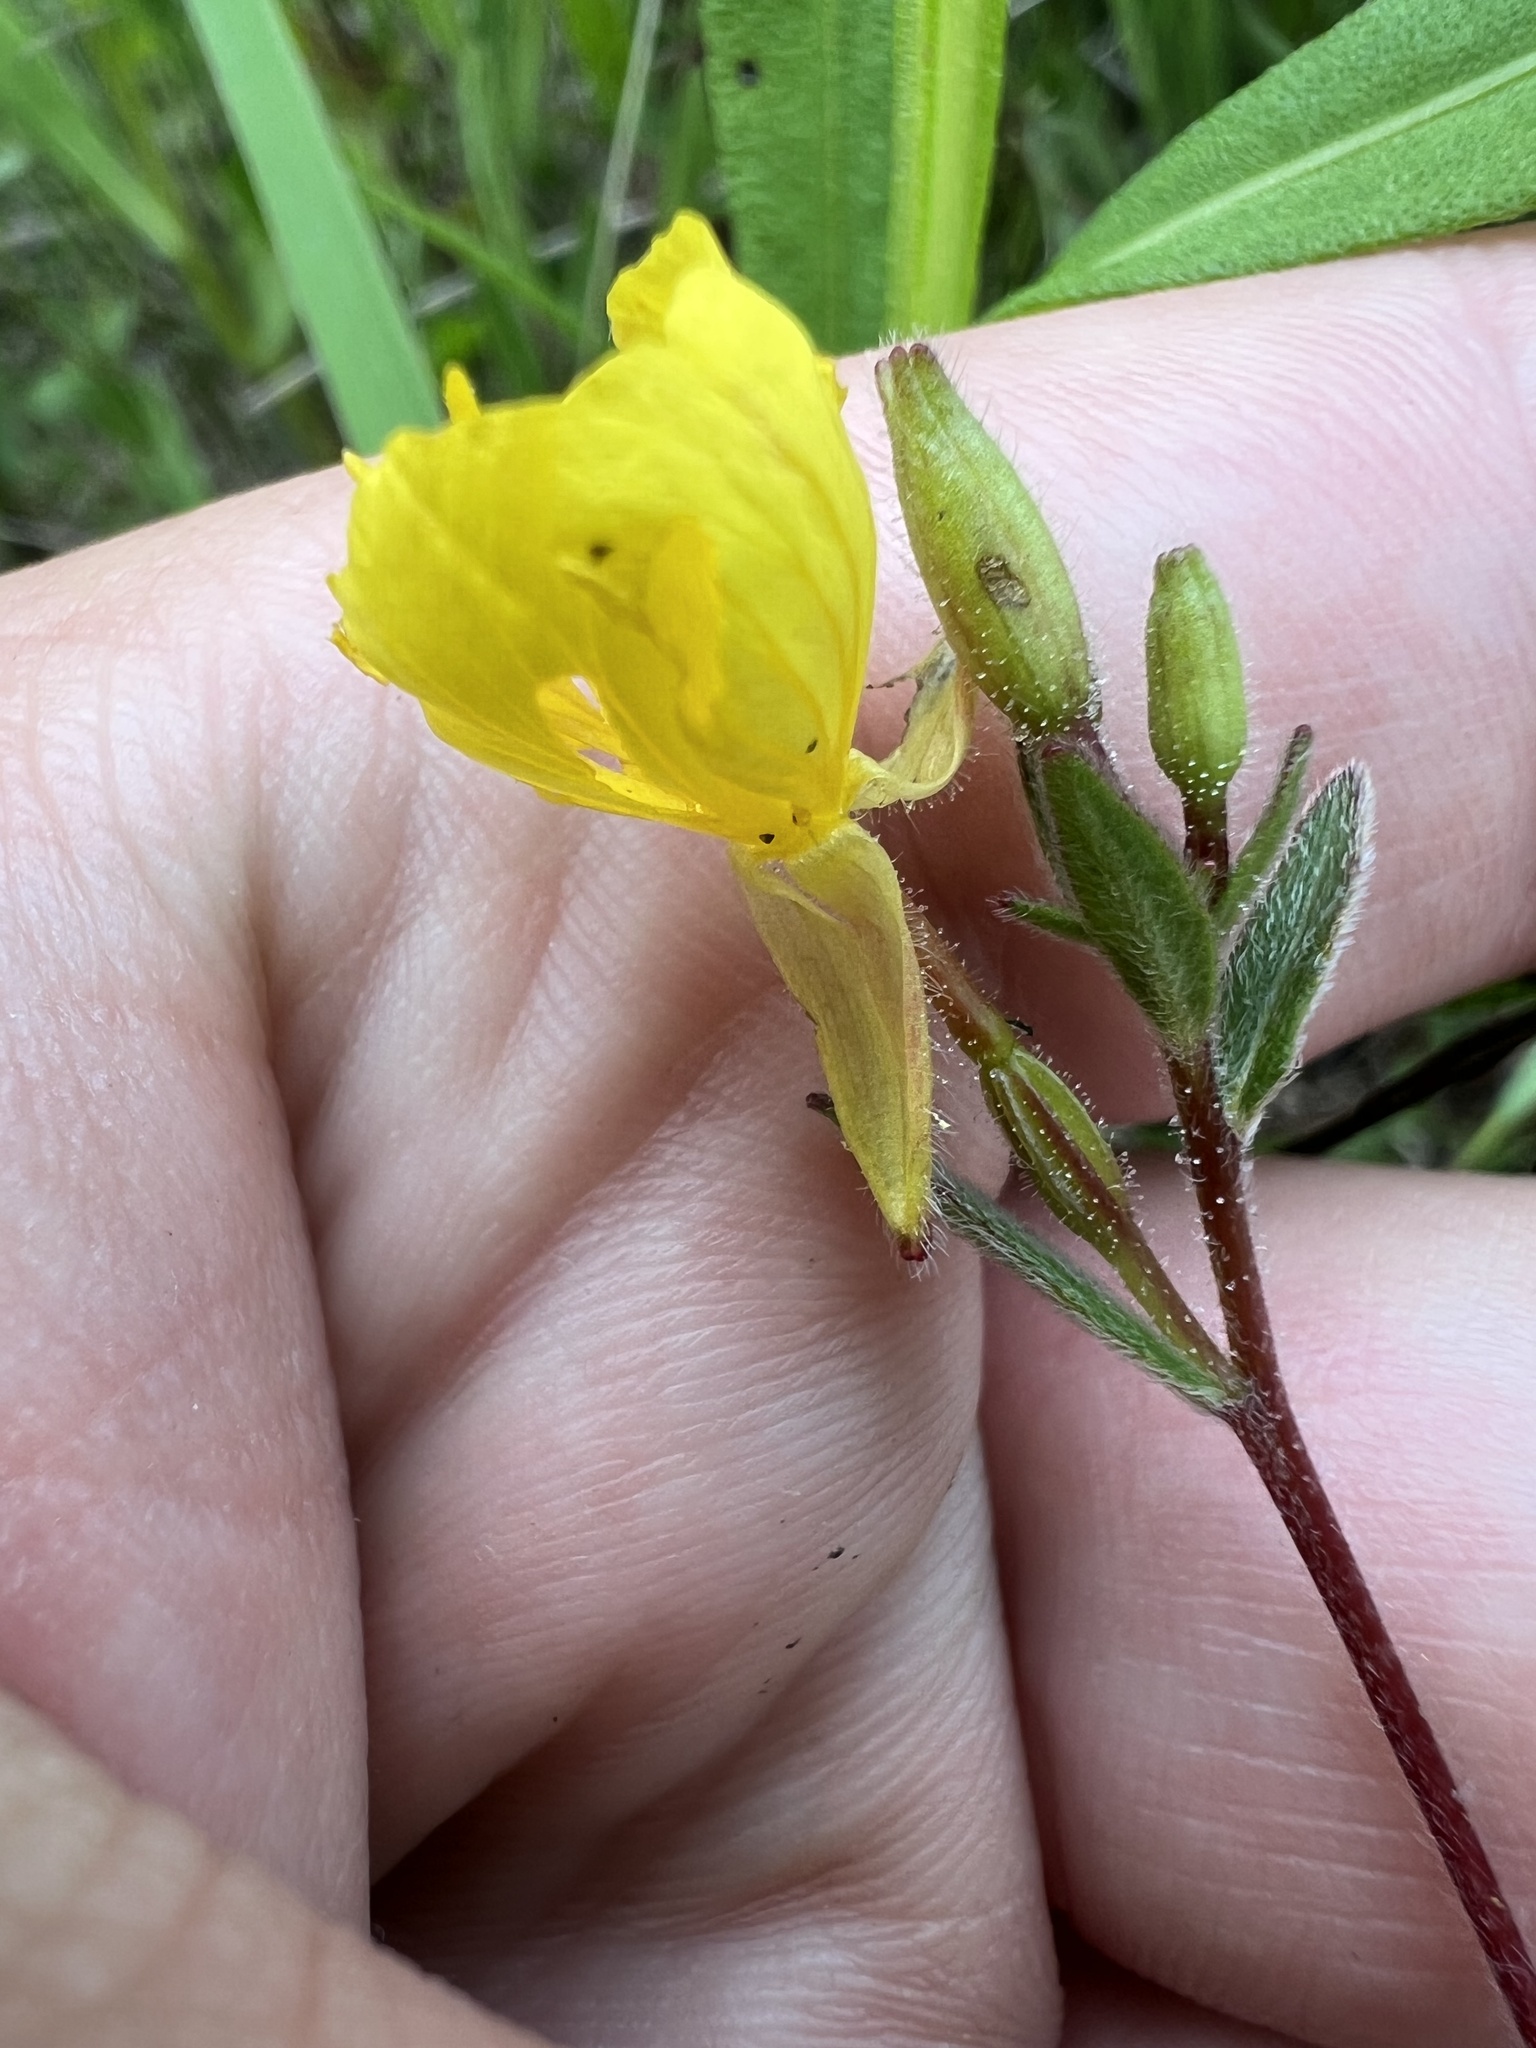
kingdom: Plantae
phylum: Tracheophyta
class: Magnoliopsida
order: Myrtales
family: Onagraceae
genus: Oenothera
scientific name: Oenothera fruticosa
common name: Southern sundrops
